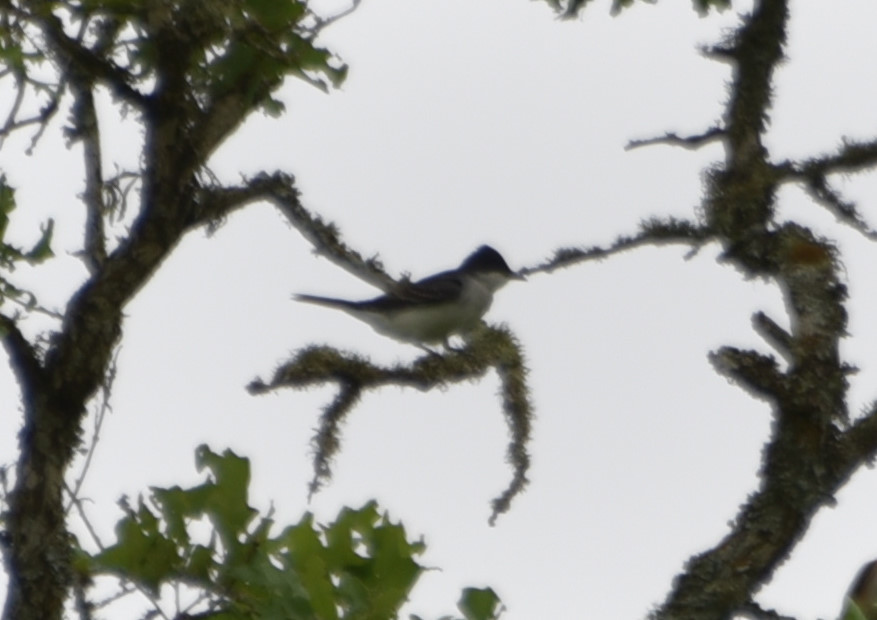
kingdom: Animalia
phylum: Chordata
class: Aves
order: Passeriformes
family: Tyrannidae
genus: Tyrannus
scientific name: Tyrannus tyrannus
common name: Eastern kingbird
